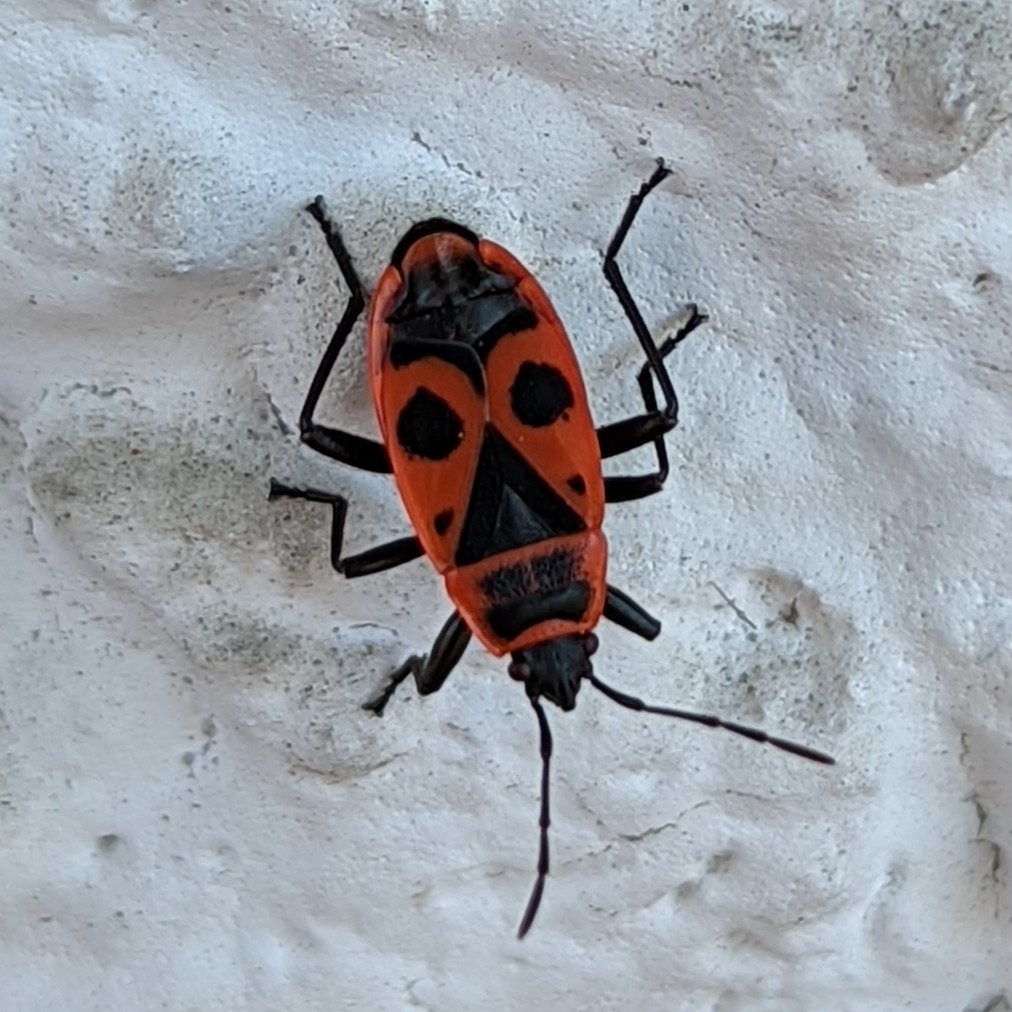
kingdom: Animalia
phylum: Arthropoda
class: Insecta
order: Hemiptera
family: Pyrrhocoridae
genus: Pyrrhocoris
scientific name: Pyrrhocoris apterus
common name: Firebug
